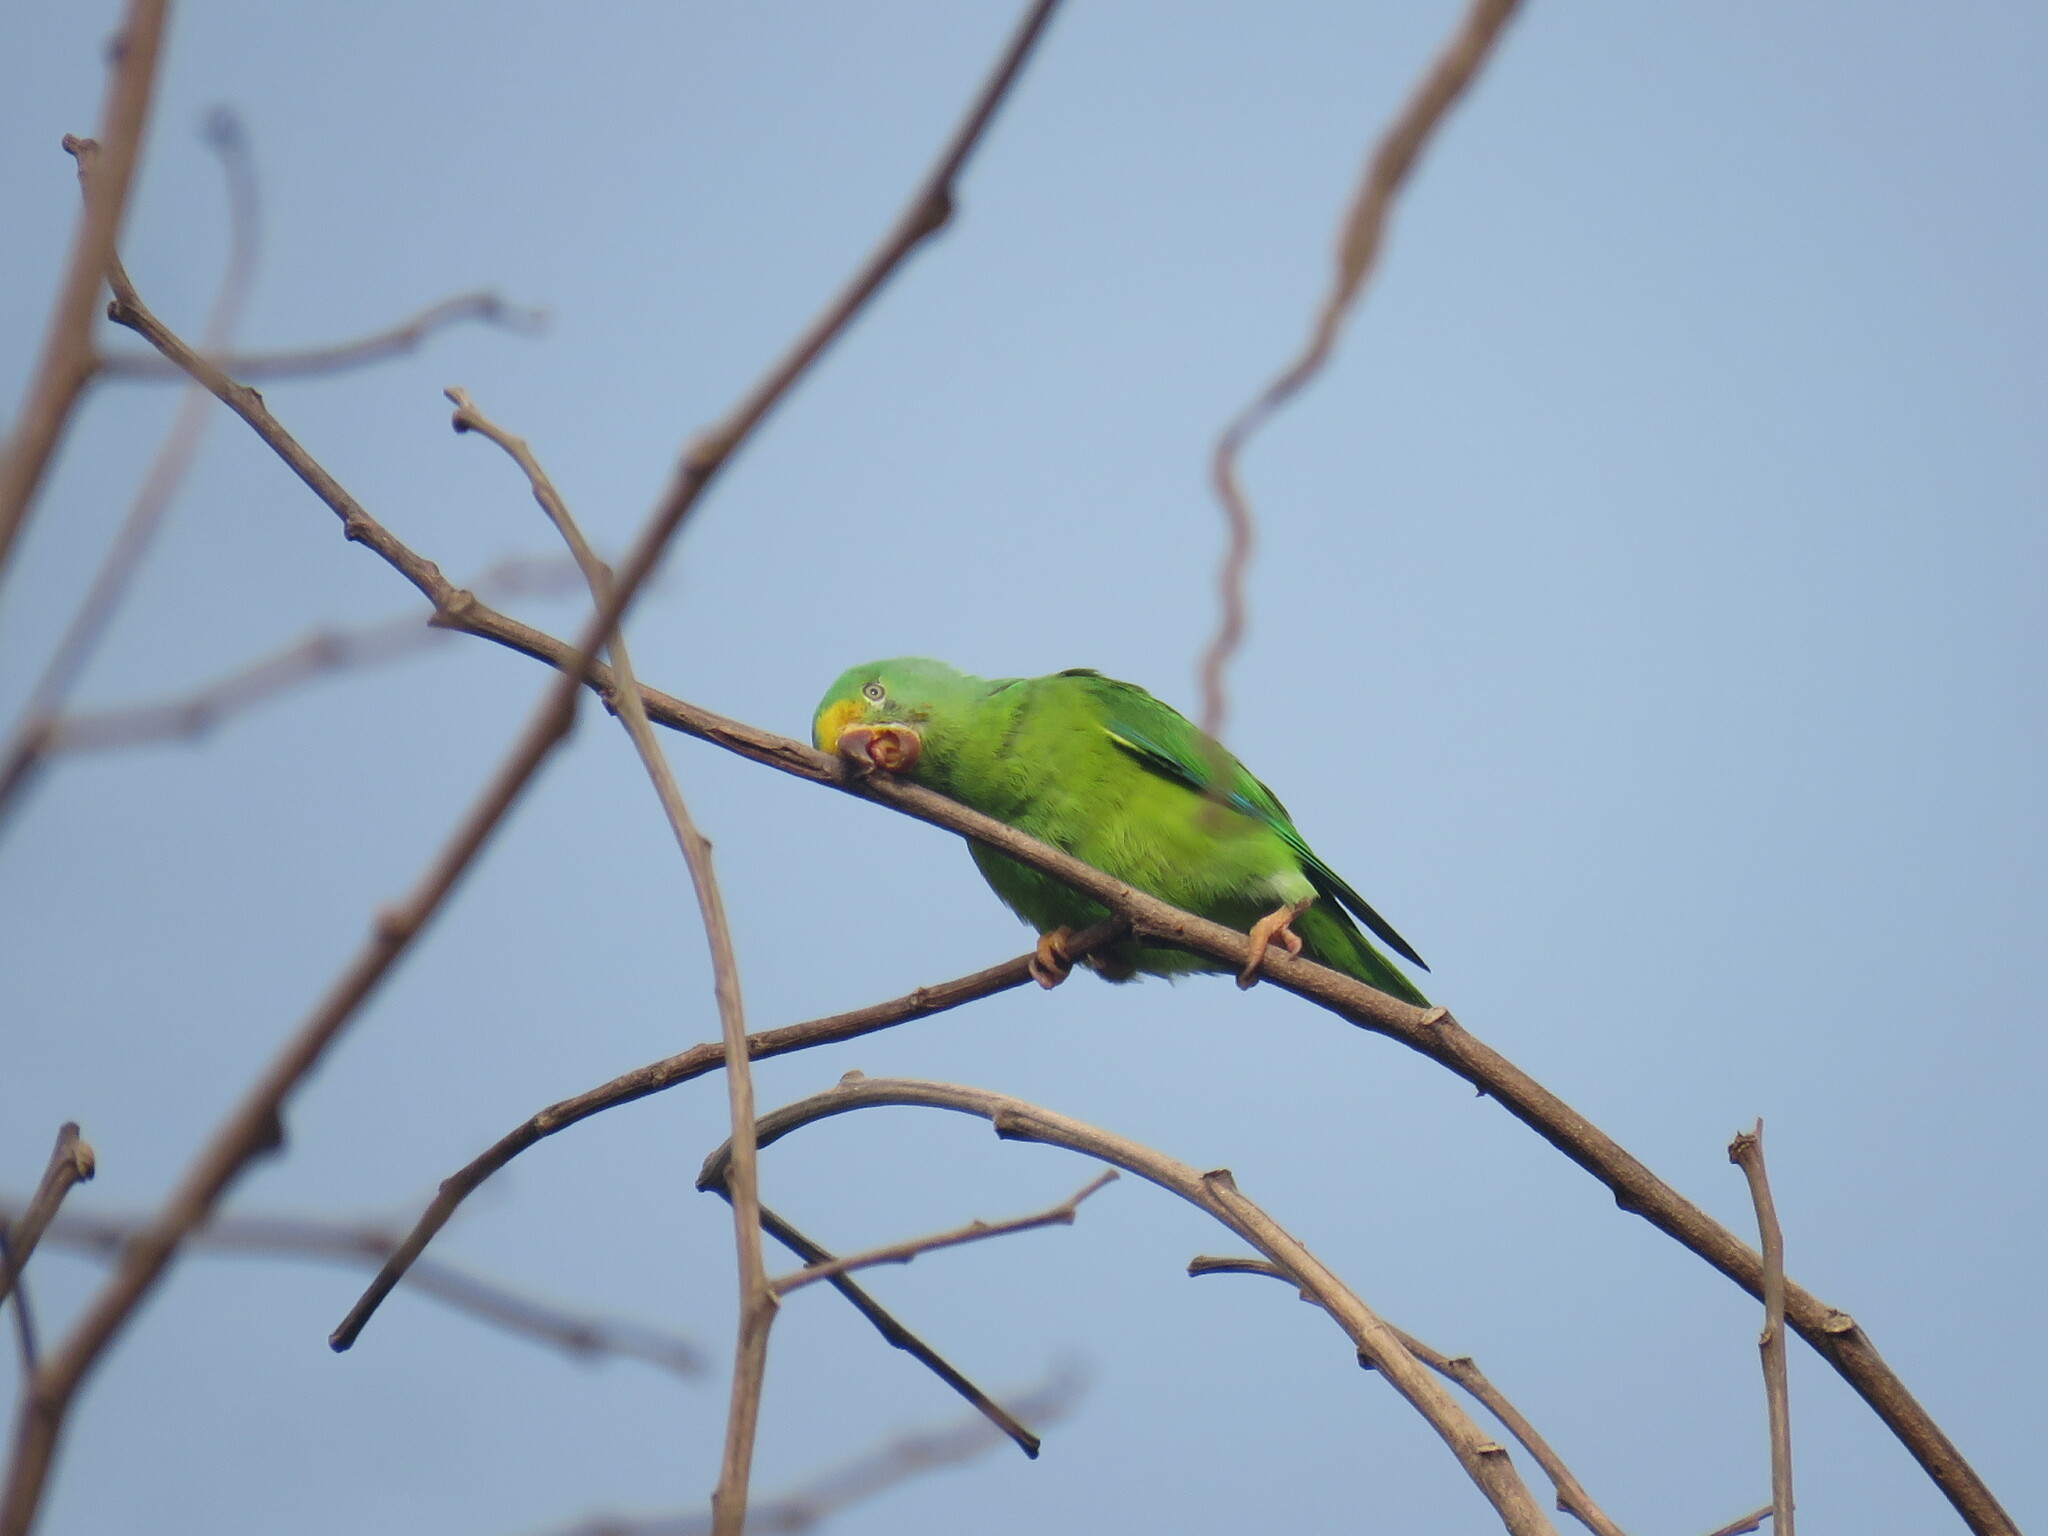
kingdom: Animalia
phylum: Chordata
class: Aves
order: Psittaciformes
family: Psittacidae
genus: Brotogeris
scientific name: Brotogeris sanctithomae
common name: Tui parakeet
